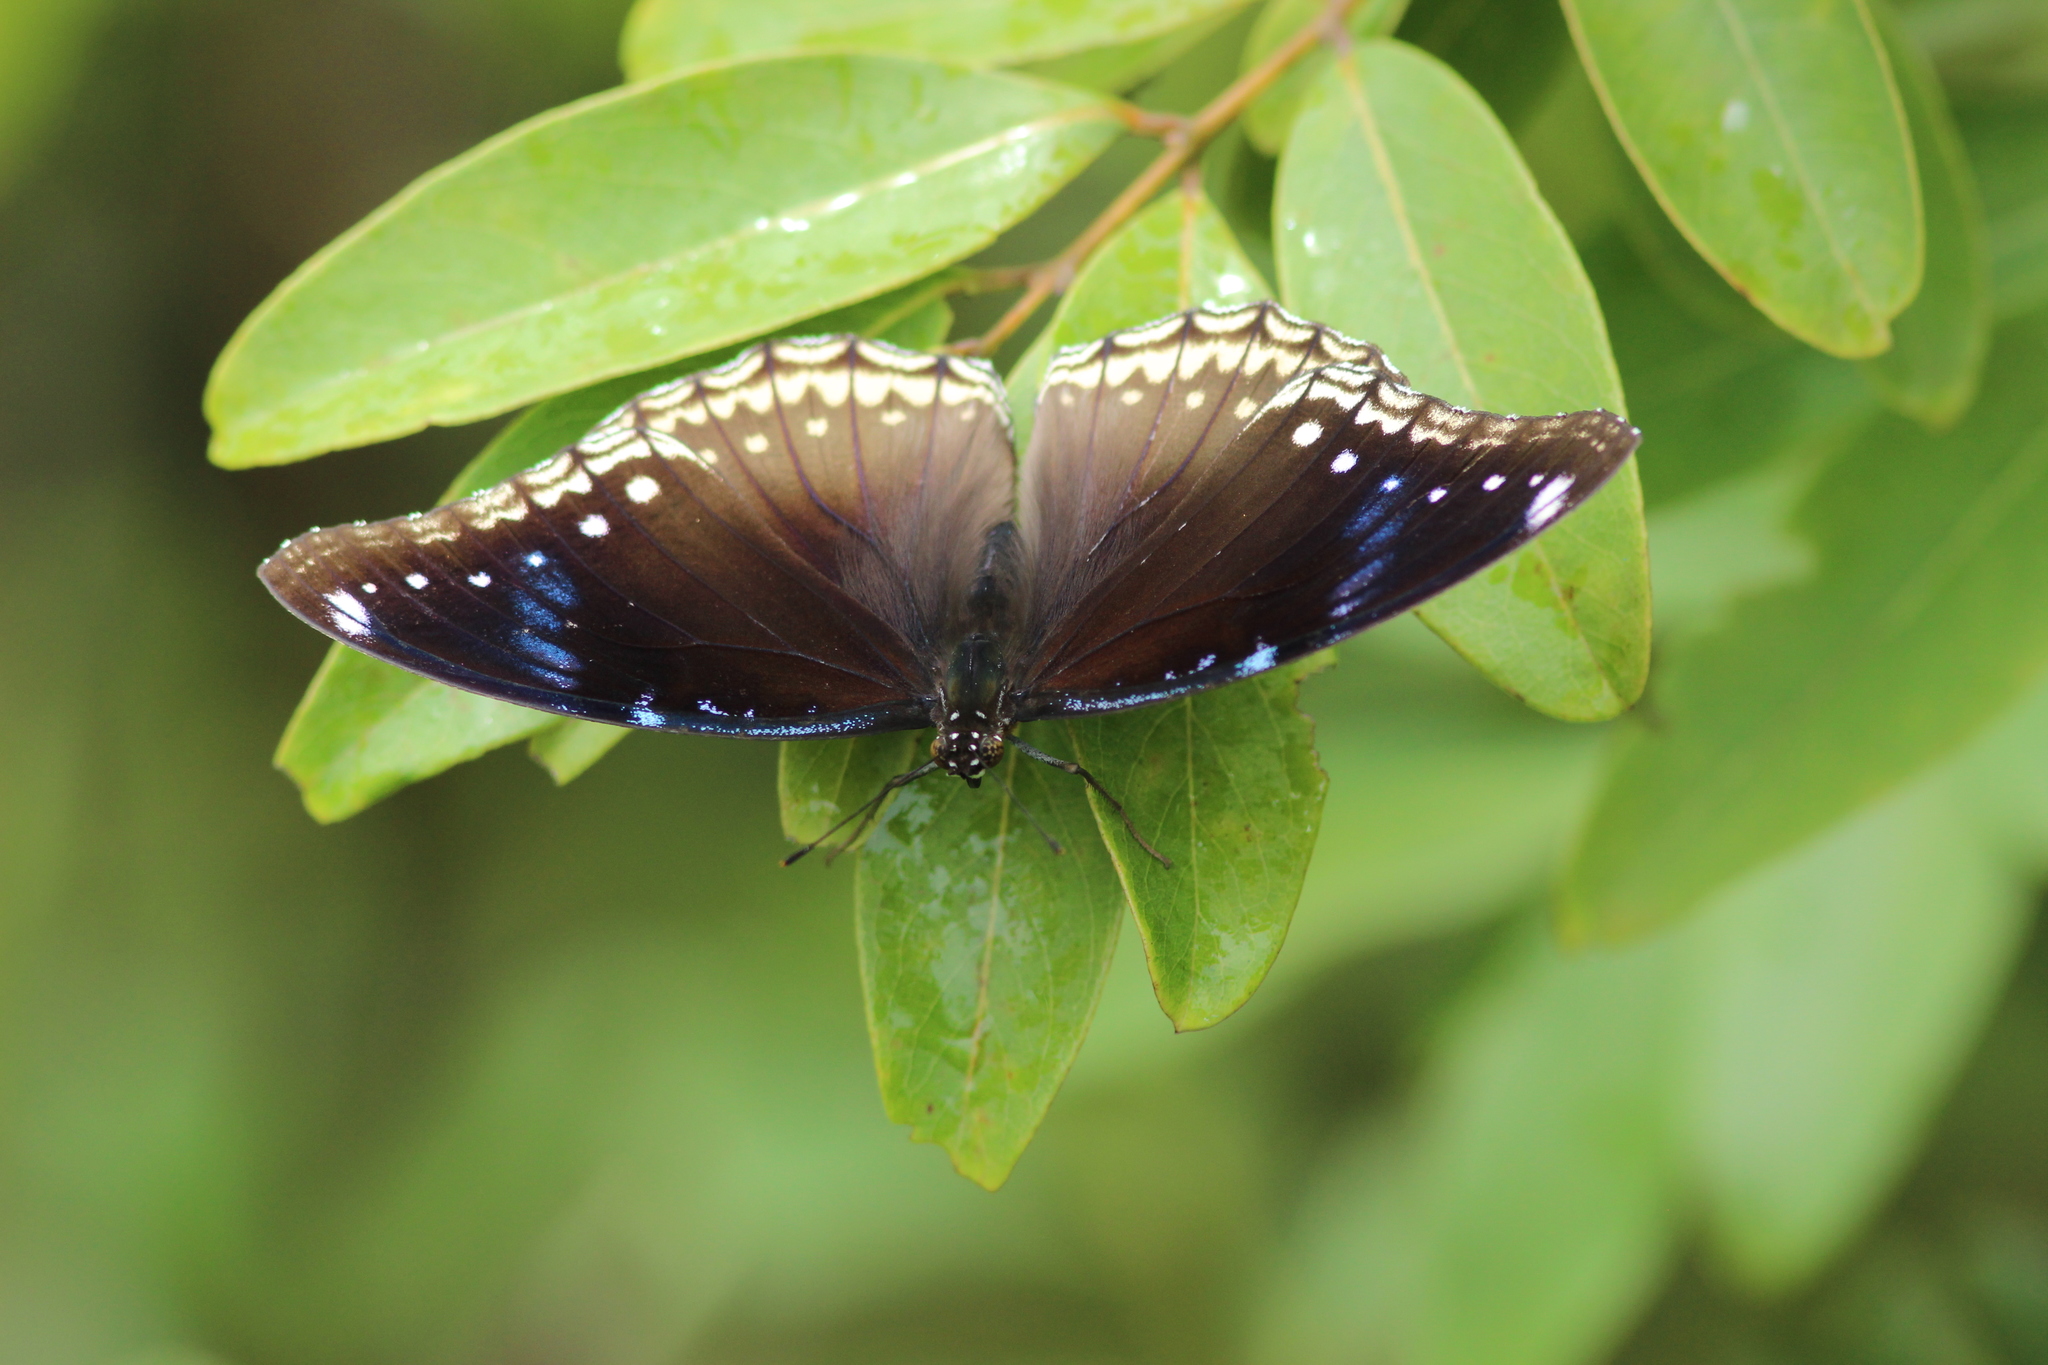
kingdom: Animalia
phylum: Arthropoda
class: Insecta
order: Lepidoptera
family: Nymphalidae
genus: Hypolimnas
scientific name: Hypolimnas bolina
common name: Great eggfly
